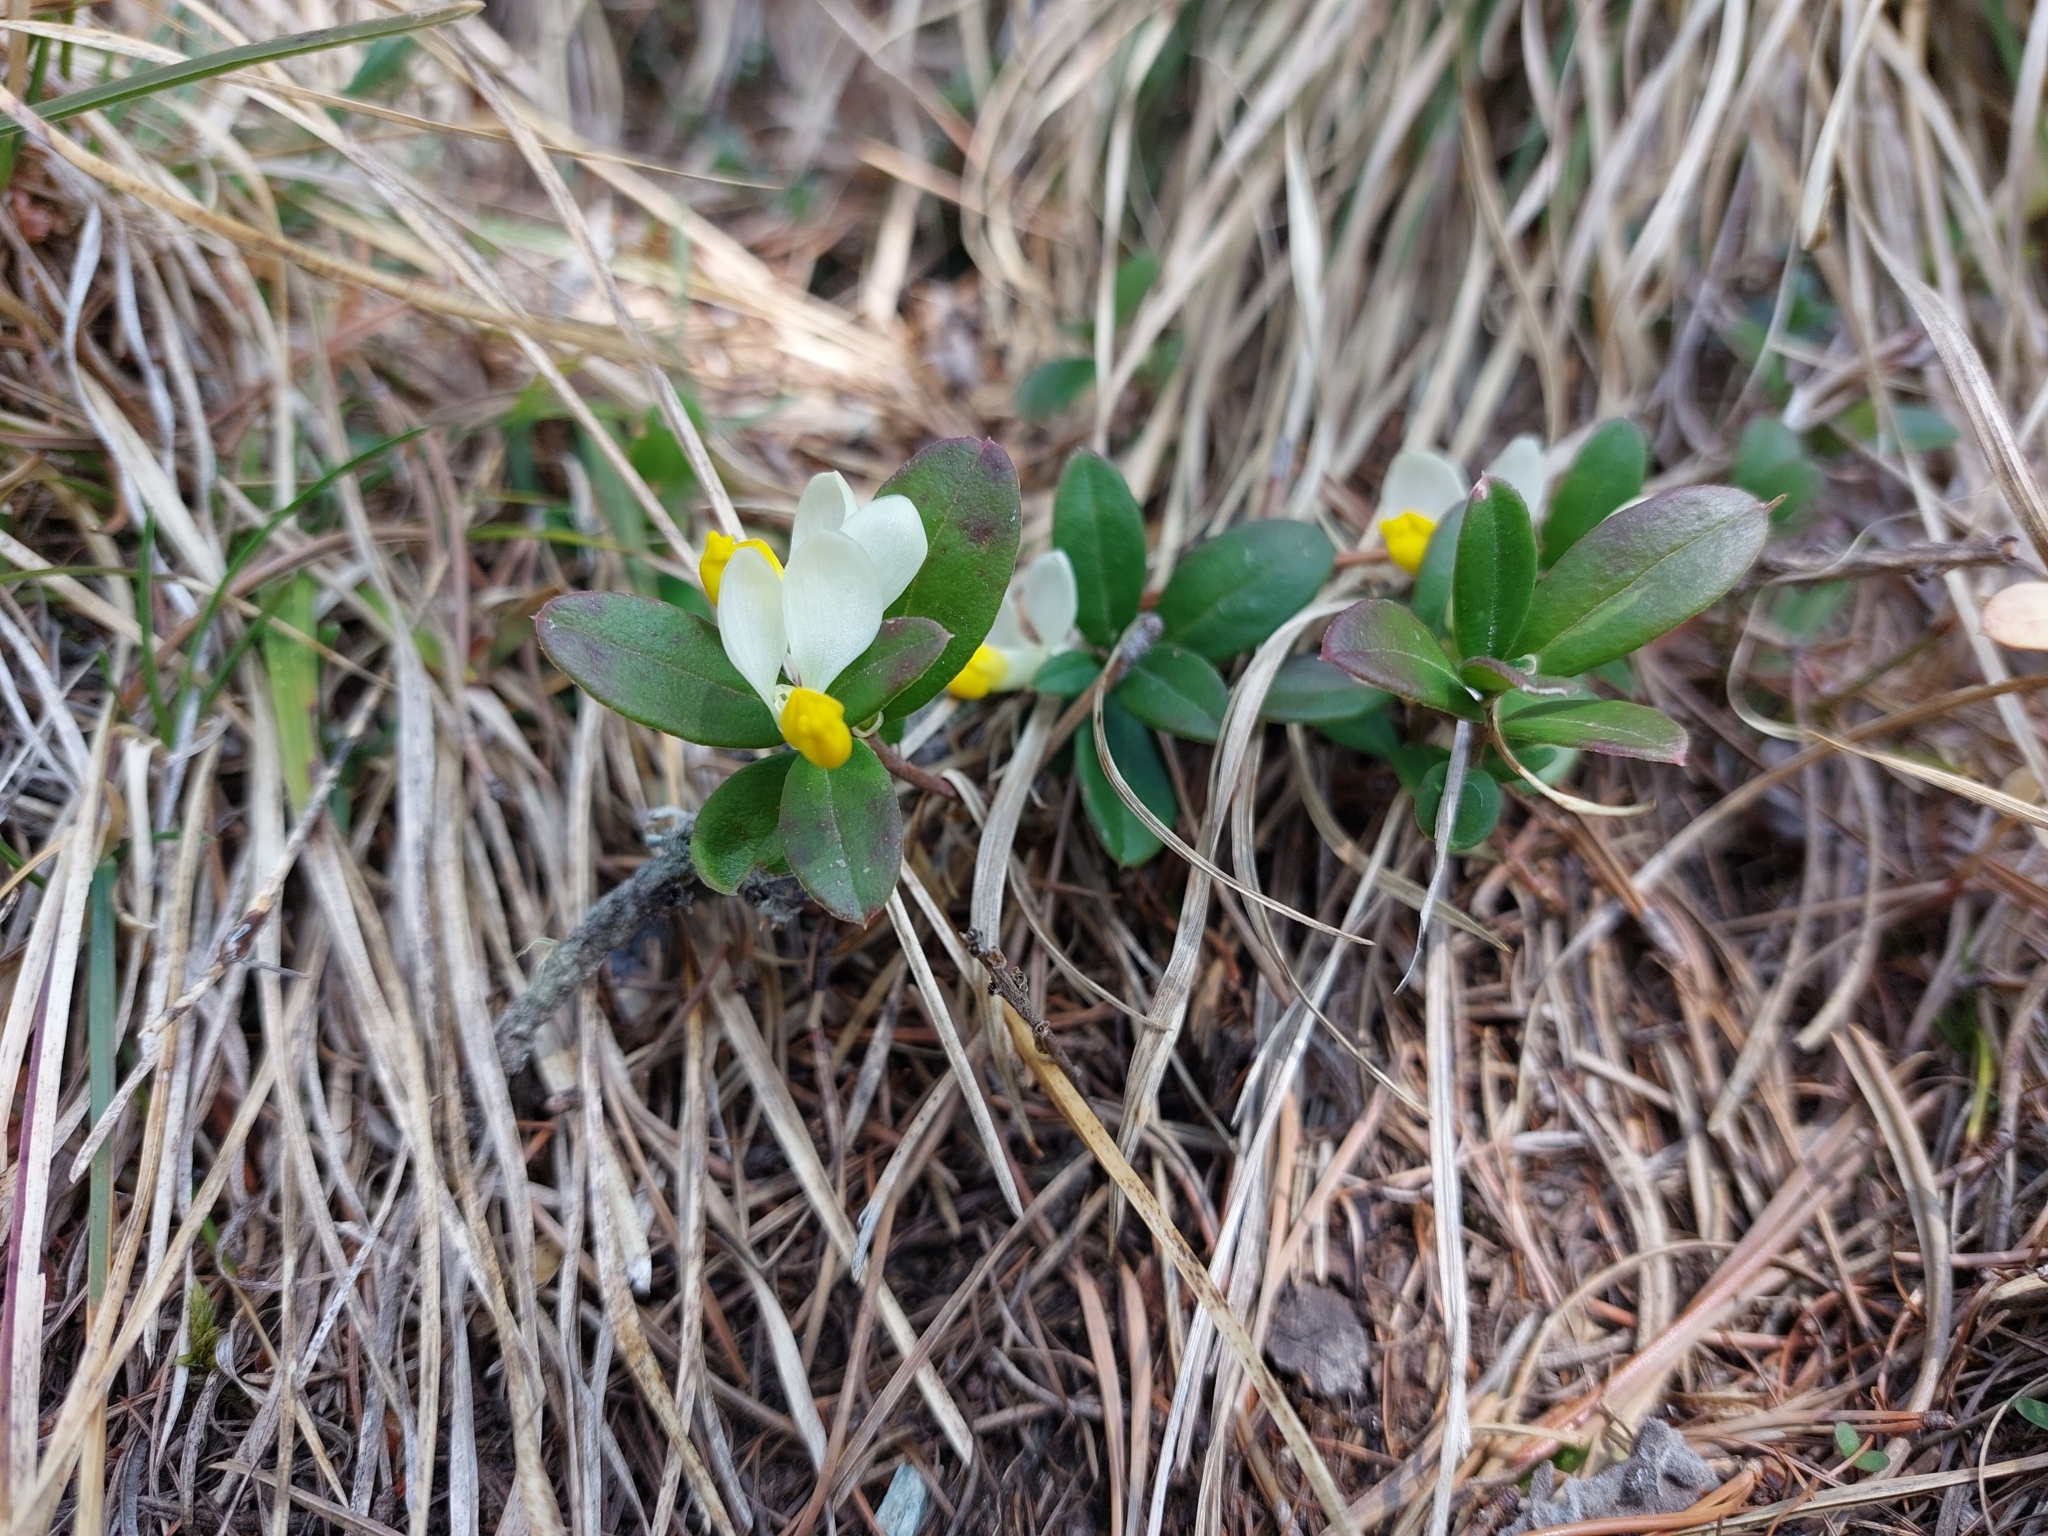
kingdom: Plantae
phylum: Tracheophyta
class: Magnoliopsida
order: Fabales
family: Polygalaceae
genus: Polygaloides
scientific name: Polygaloides chamaebuxus
